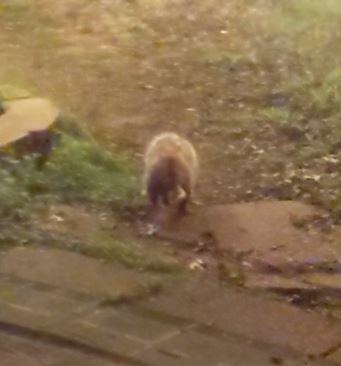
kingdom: Animalia
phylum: Chordata
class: Mammalia
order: Didelphimorphia
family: Didelphidae
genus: Didelphis
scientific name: Didelphis virginiana
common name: Virginia opossum
